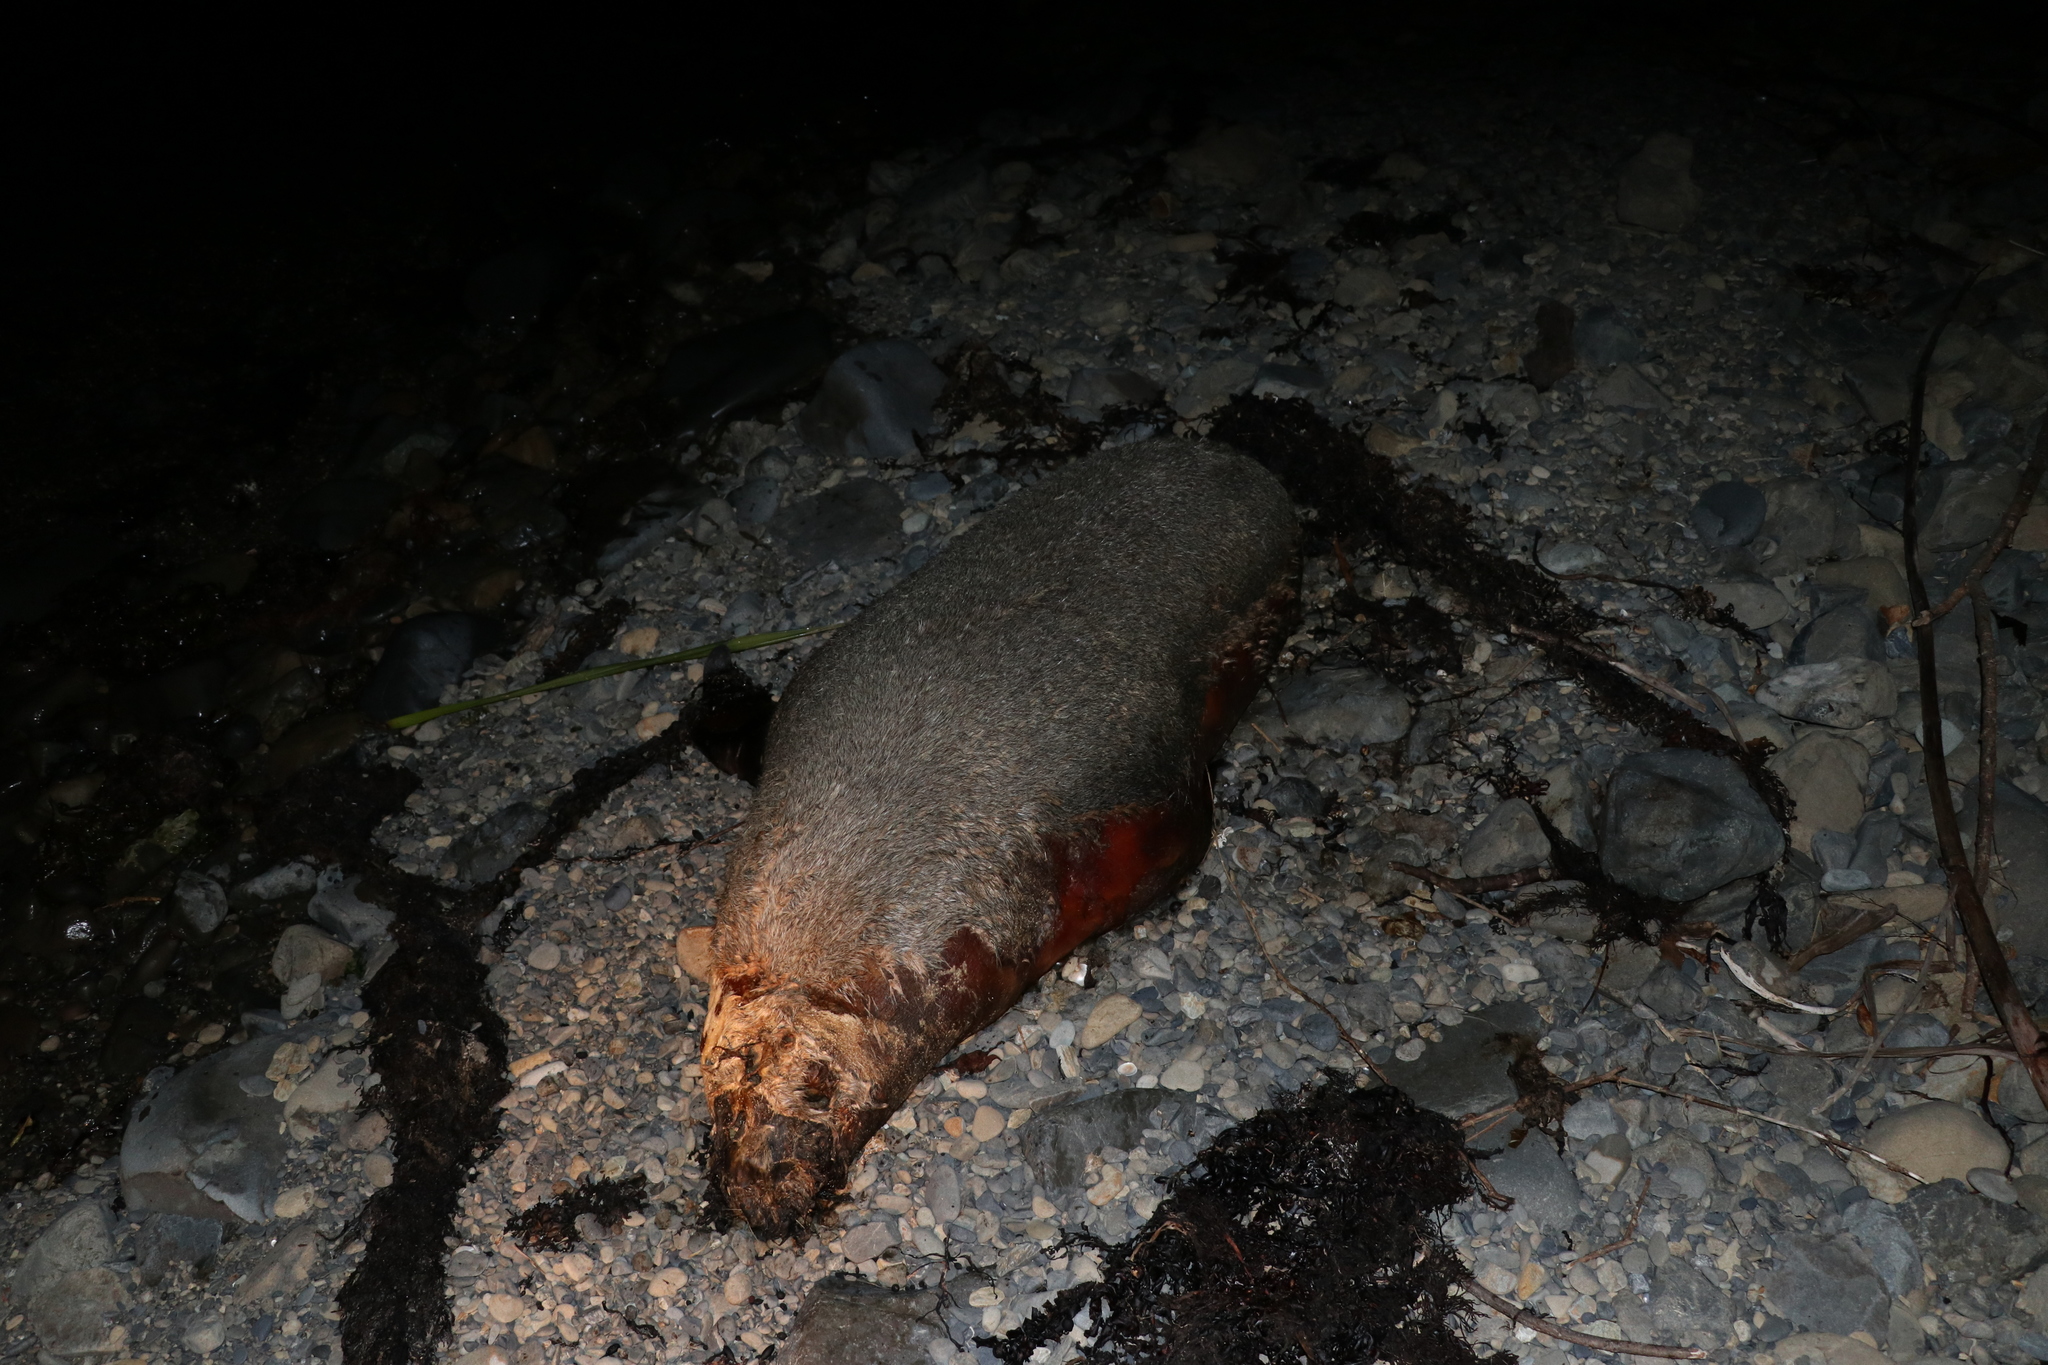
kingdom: Animalia
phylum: Chordata
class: Mammalia
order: Carnivora
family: Otariidae
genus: Arctocephalus
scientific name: Arctocephalus forsteri
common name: New zealand fur seal
